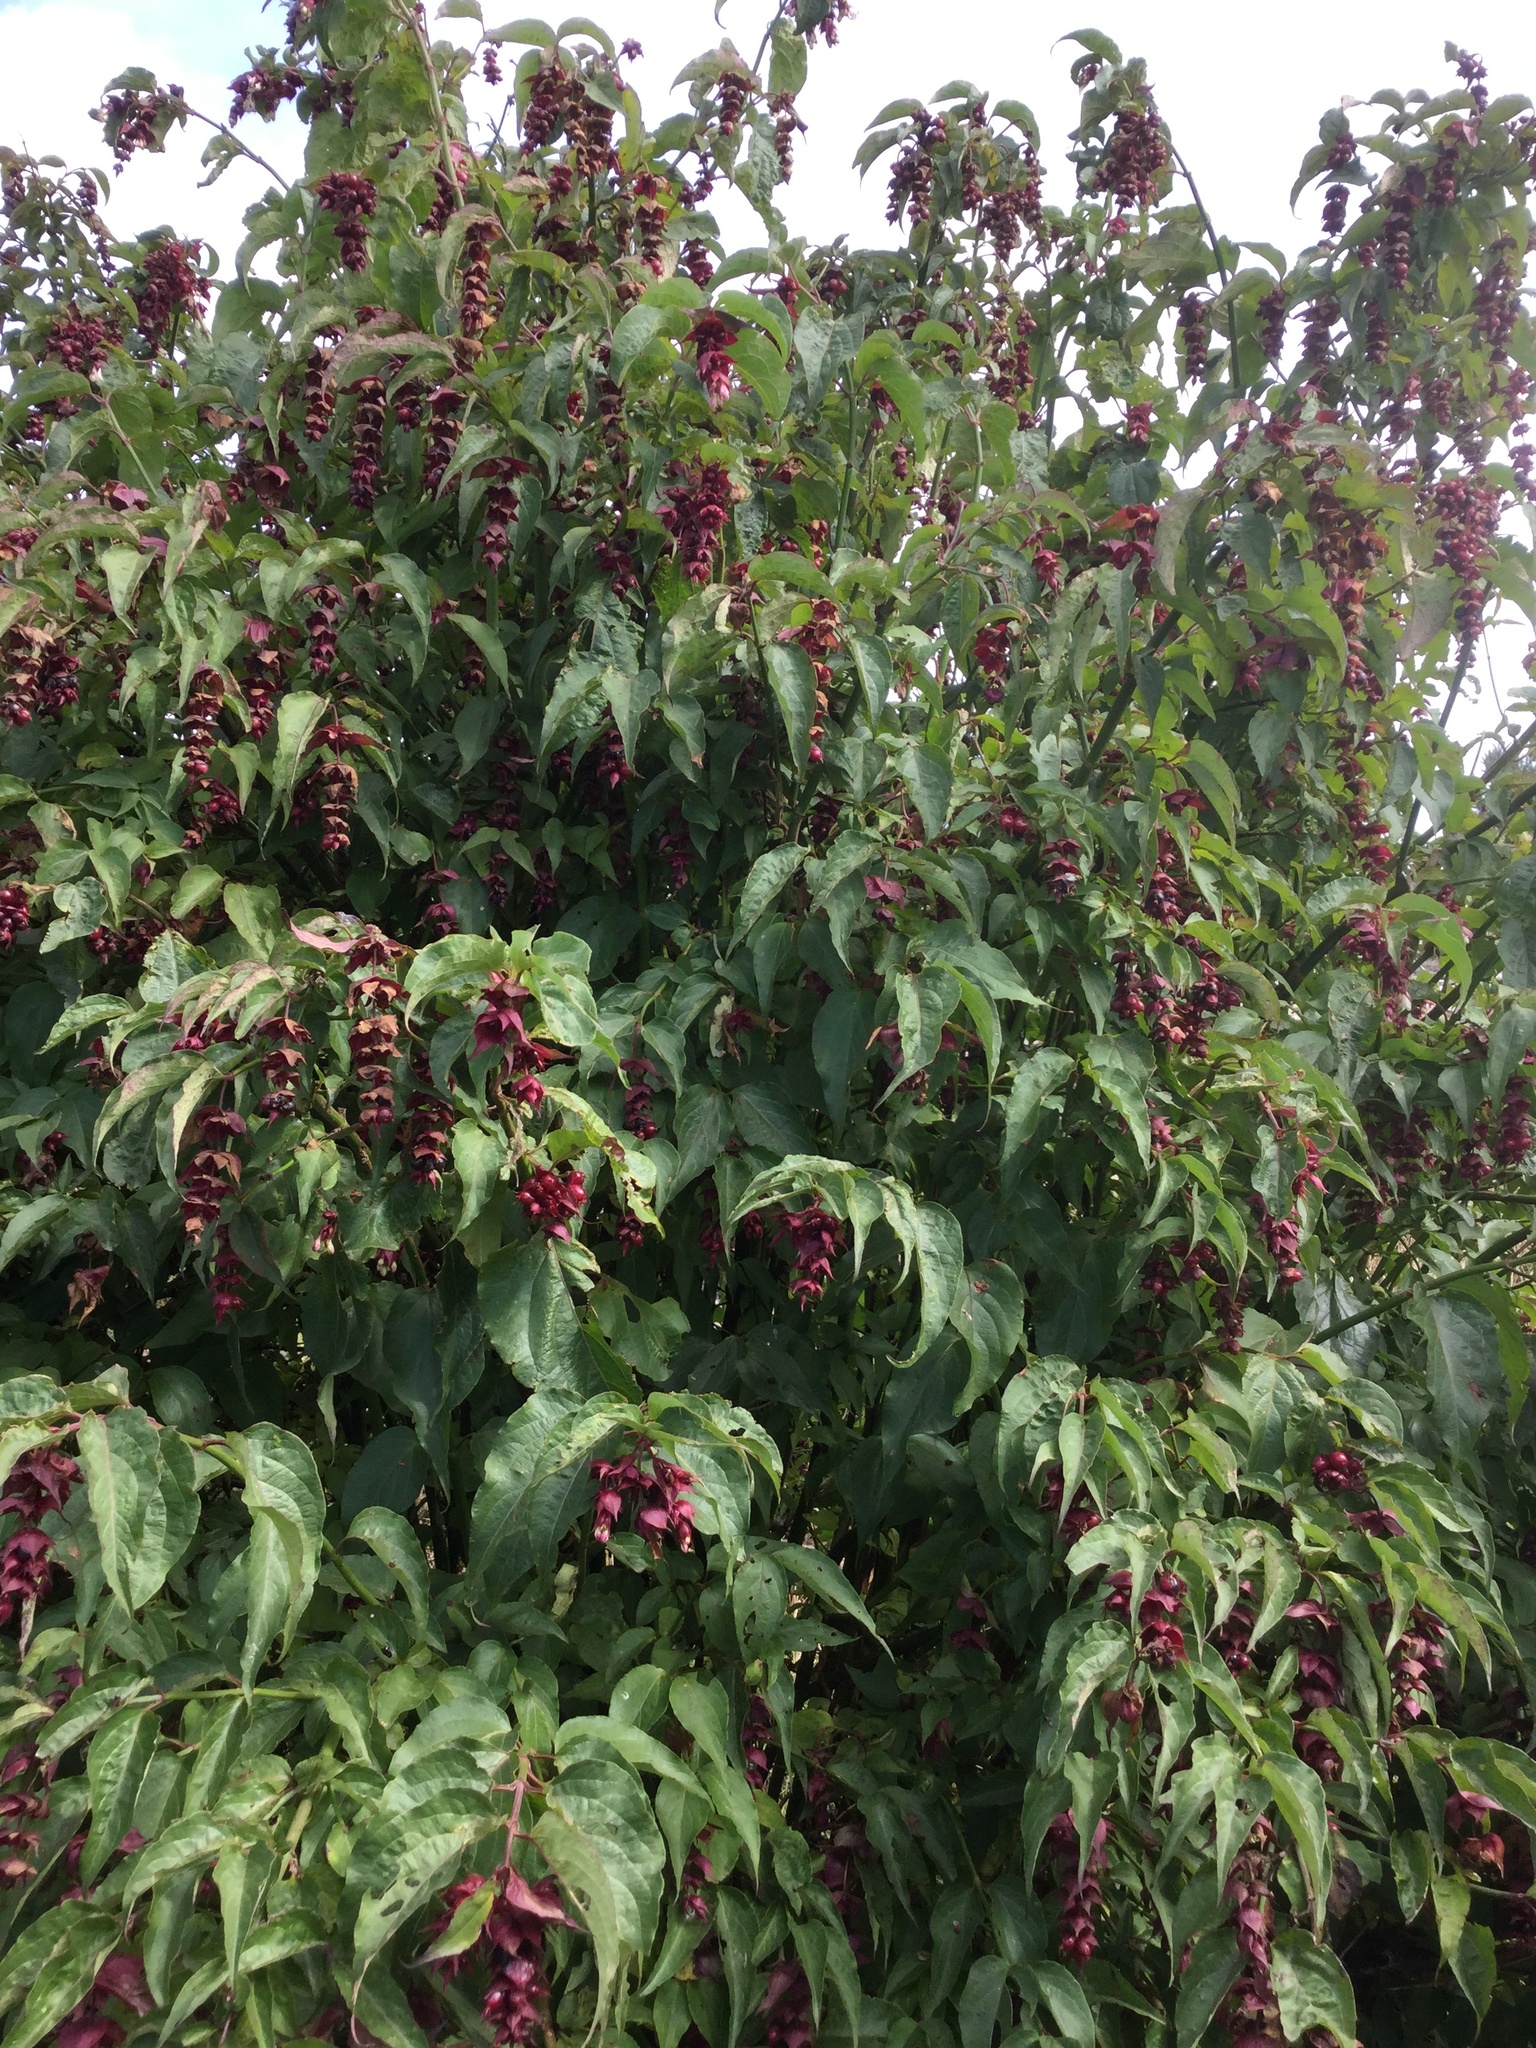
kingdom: Plantae
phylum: Tracheophyta
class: Magnoliopsida
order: Dipsacales
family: Caprifoliaceae
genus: Leycesteria
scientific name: Leycesteria formosa
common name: Himalayan honeysuckle
